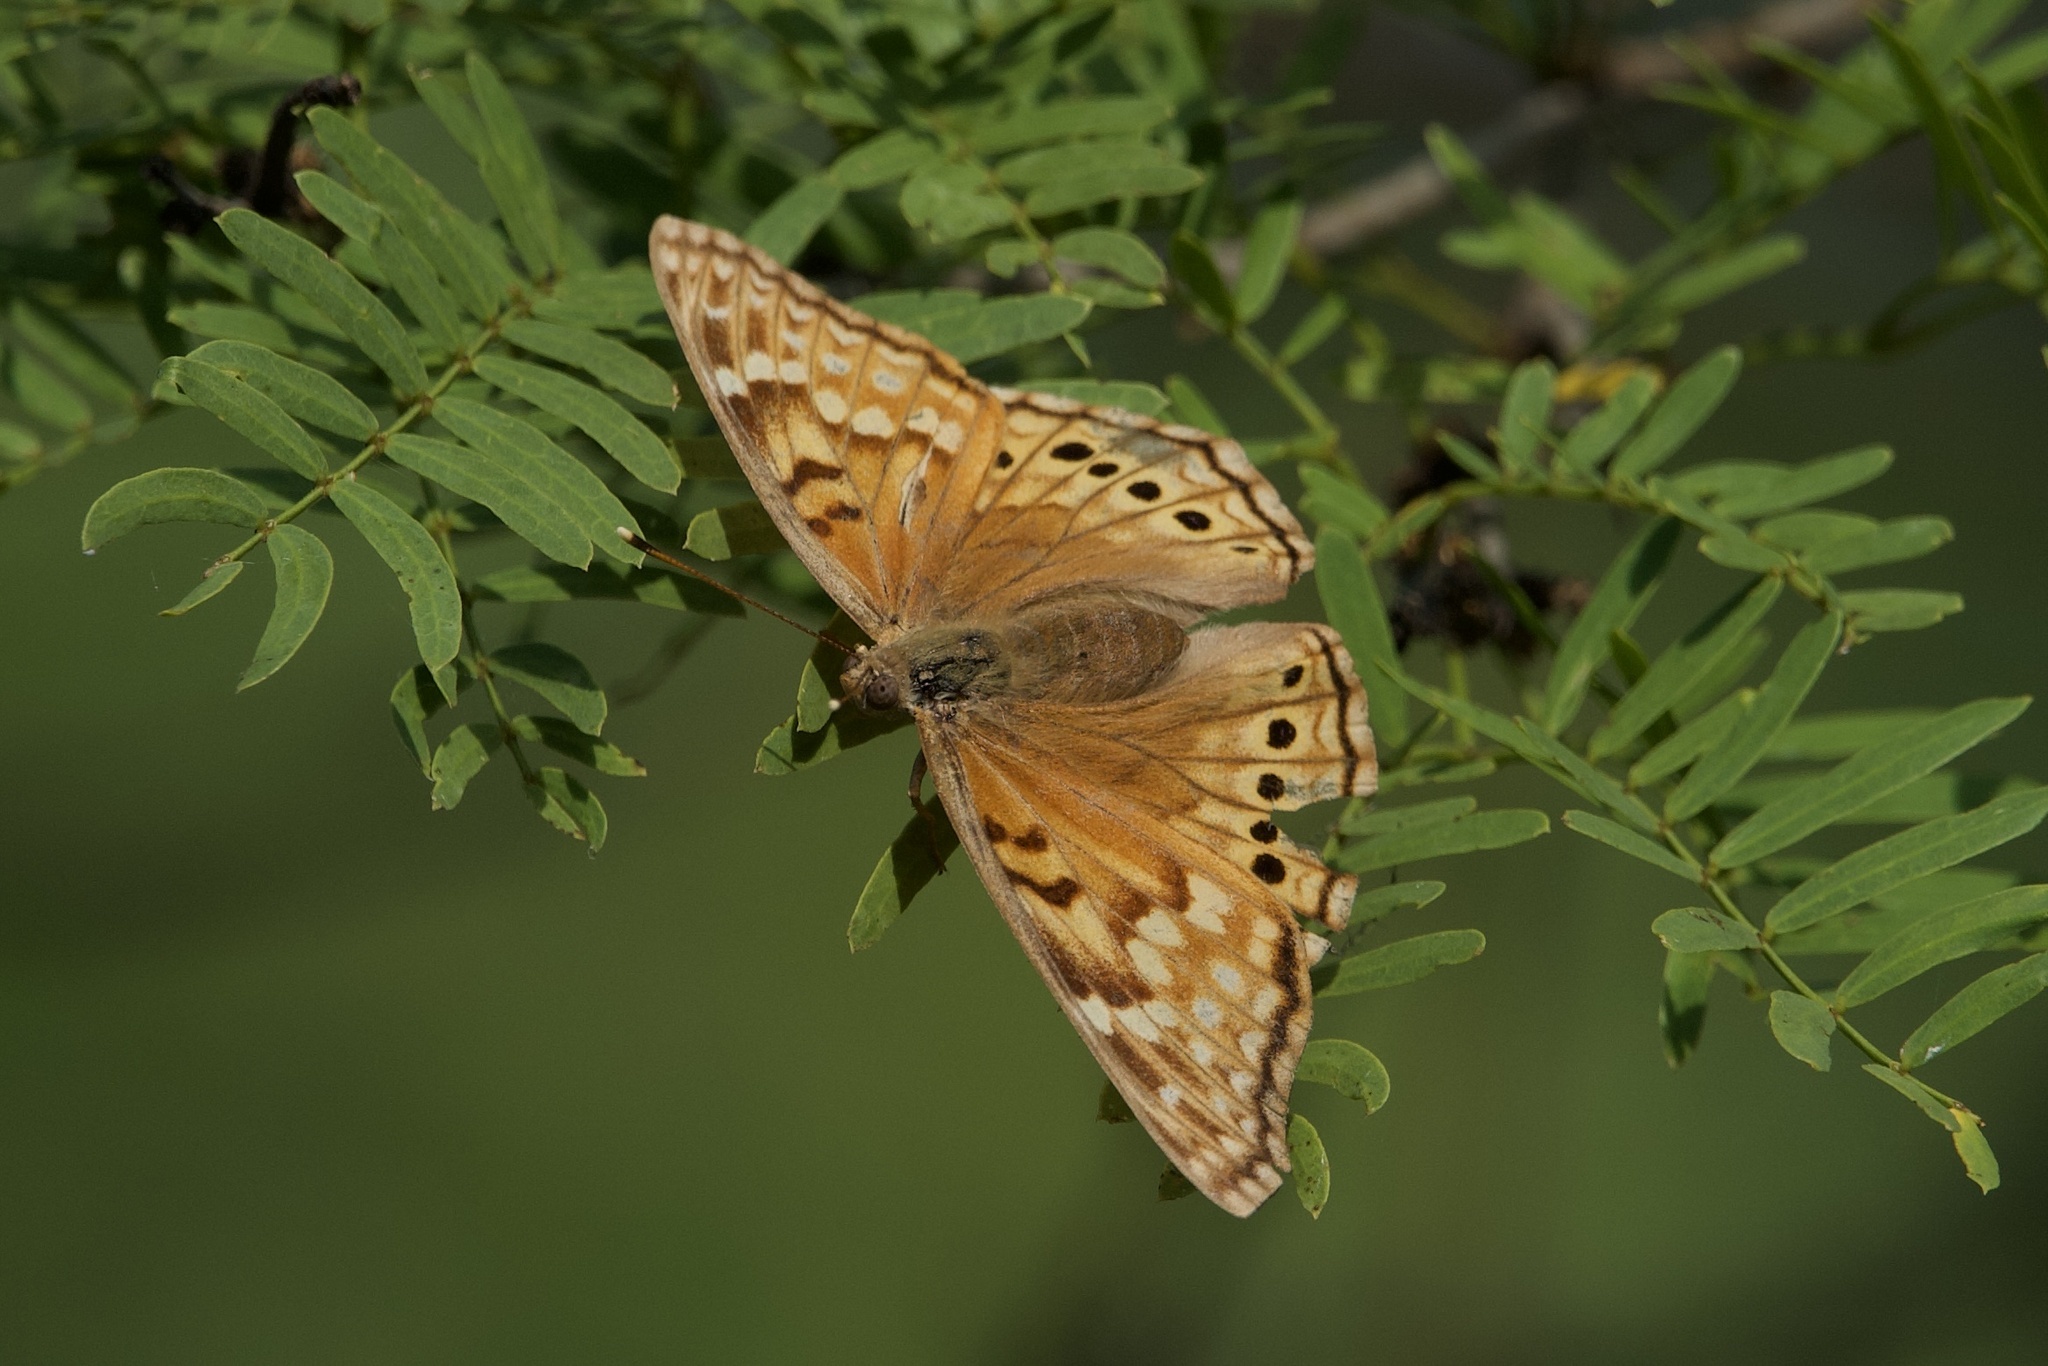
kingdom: Animalia
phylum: Arthropoda
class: Insecta
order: Lepidoptera
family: Nymphalidae
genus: Asterocampa
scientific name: Asterocampa clyton
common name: Tawny emperor
